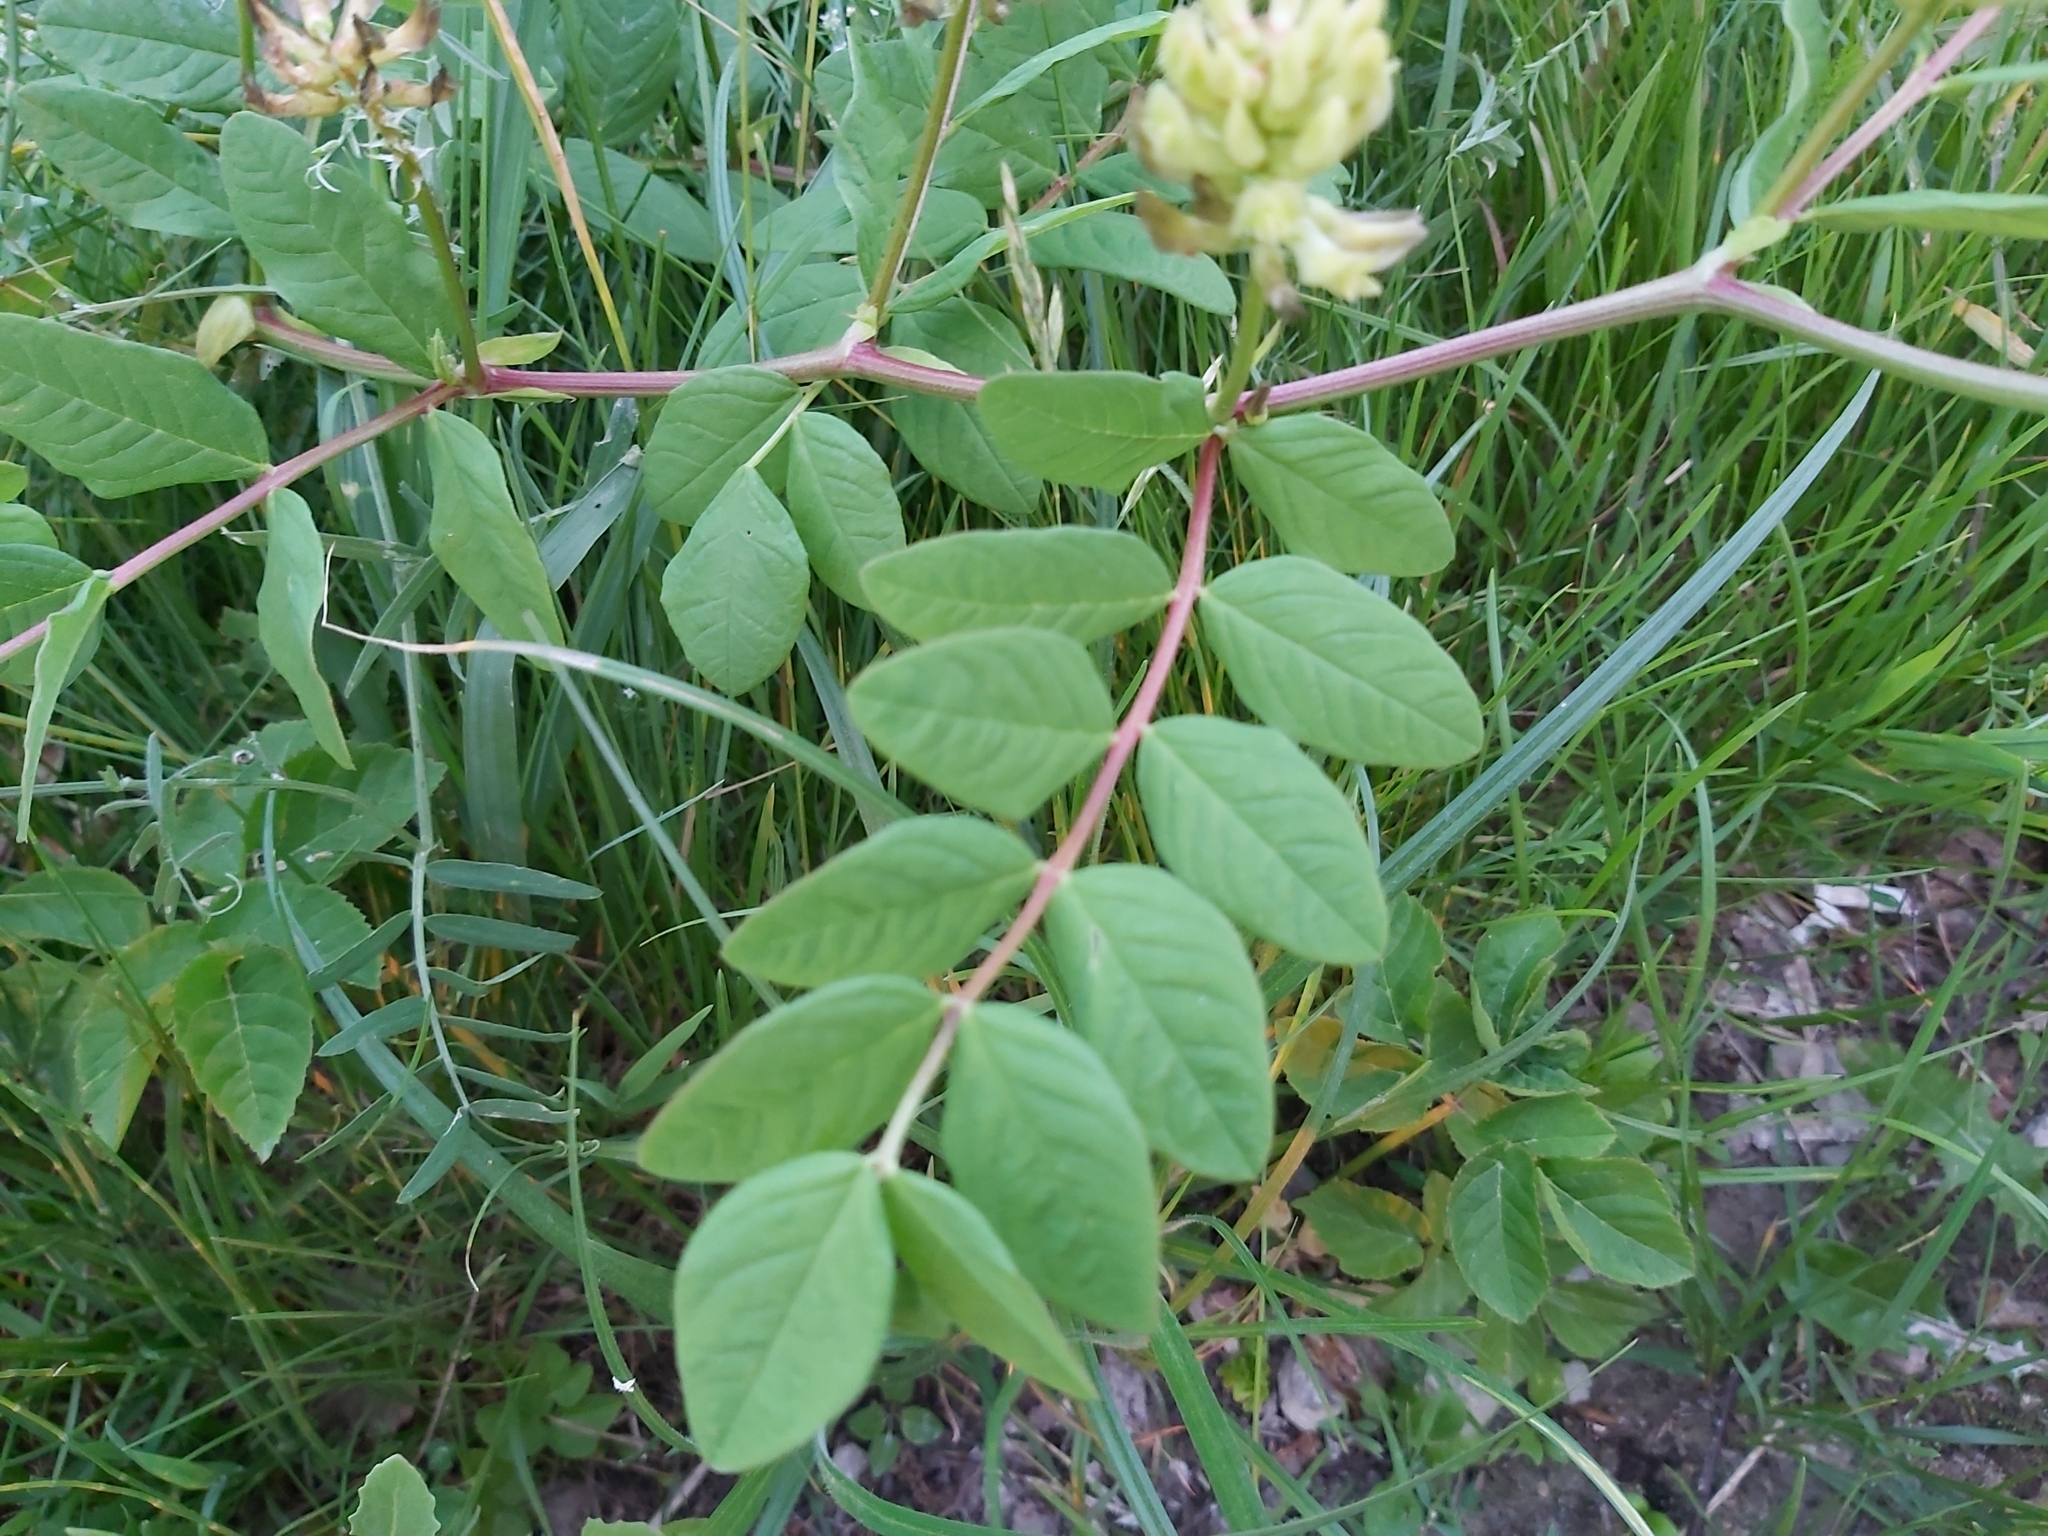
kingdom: Plantae
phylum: Tracheophyta
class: Magnoliopsida
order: Fabales
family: Fabaceae
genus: Astragalus
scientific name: Astragalus glycyphyllos
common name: Wild liquorice
